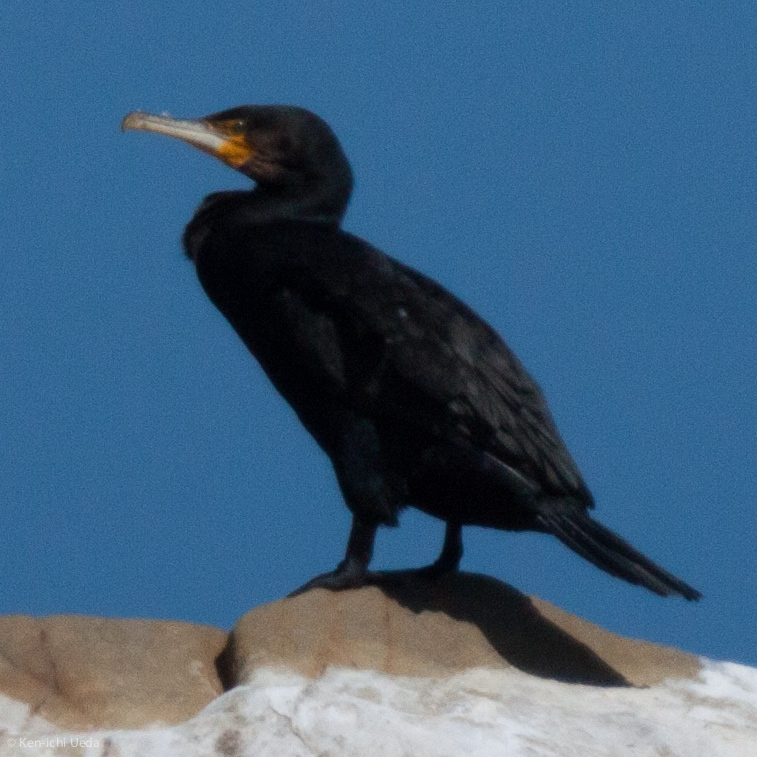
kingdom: Animalia
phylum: Chordata
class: Aves
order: Suliformes
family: Phalacrocoracidae
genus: Phalacrocorax
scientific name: Phalacrocorax carbo
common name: Great cormorant
